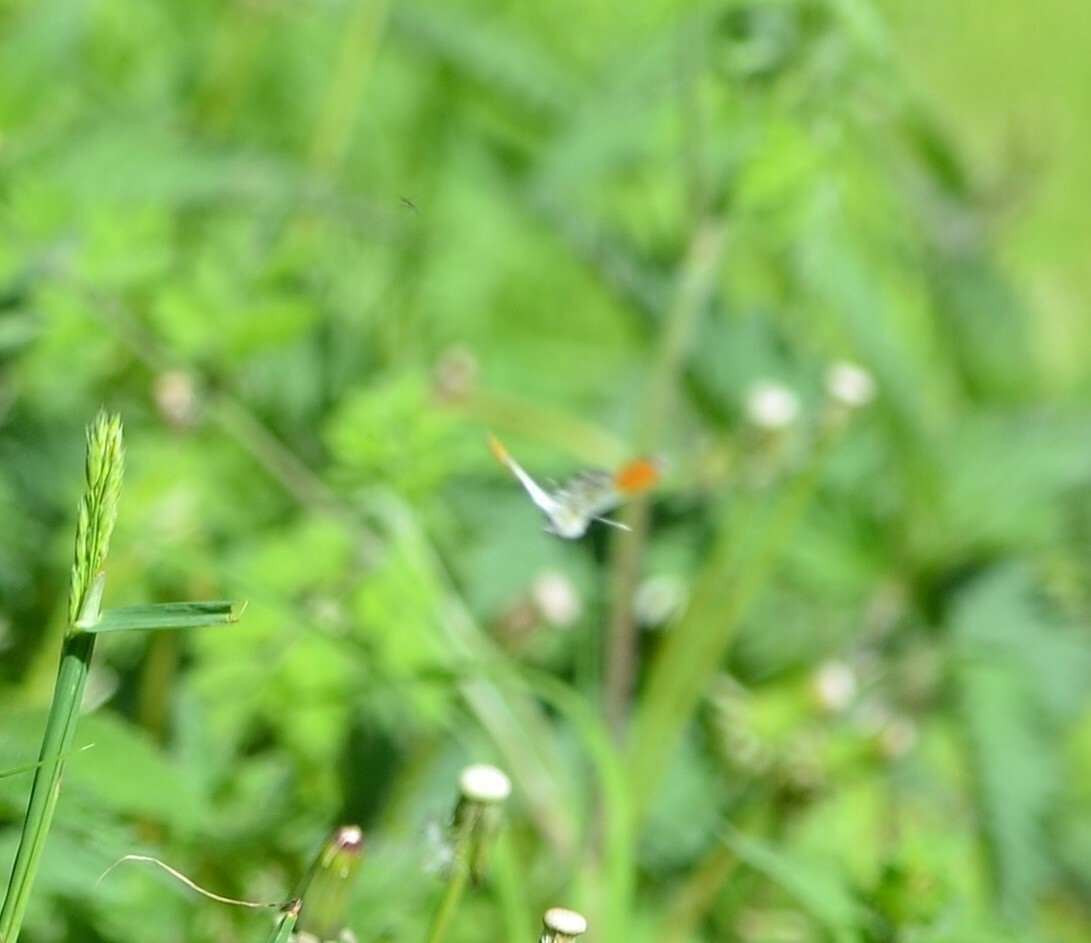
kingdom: Animalia
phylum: Arthropoda
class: Insecta
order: Lepidoptera
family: Pieridae
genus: Anthocharis
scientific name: Anthocharis cardamines
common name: Orange-tip
